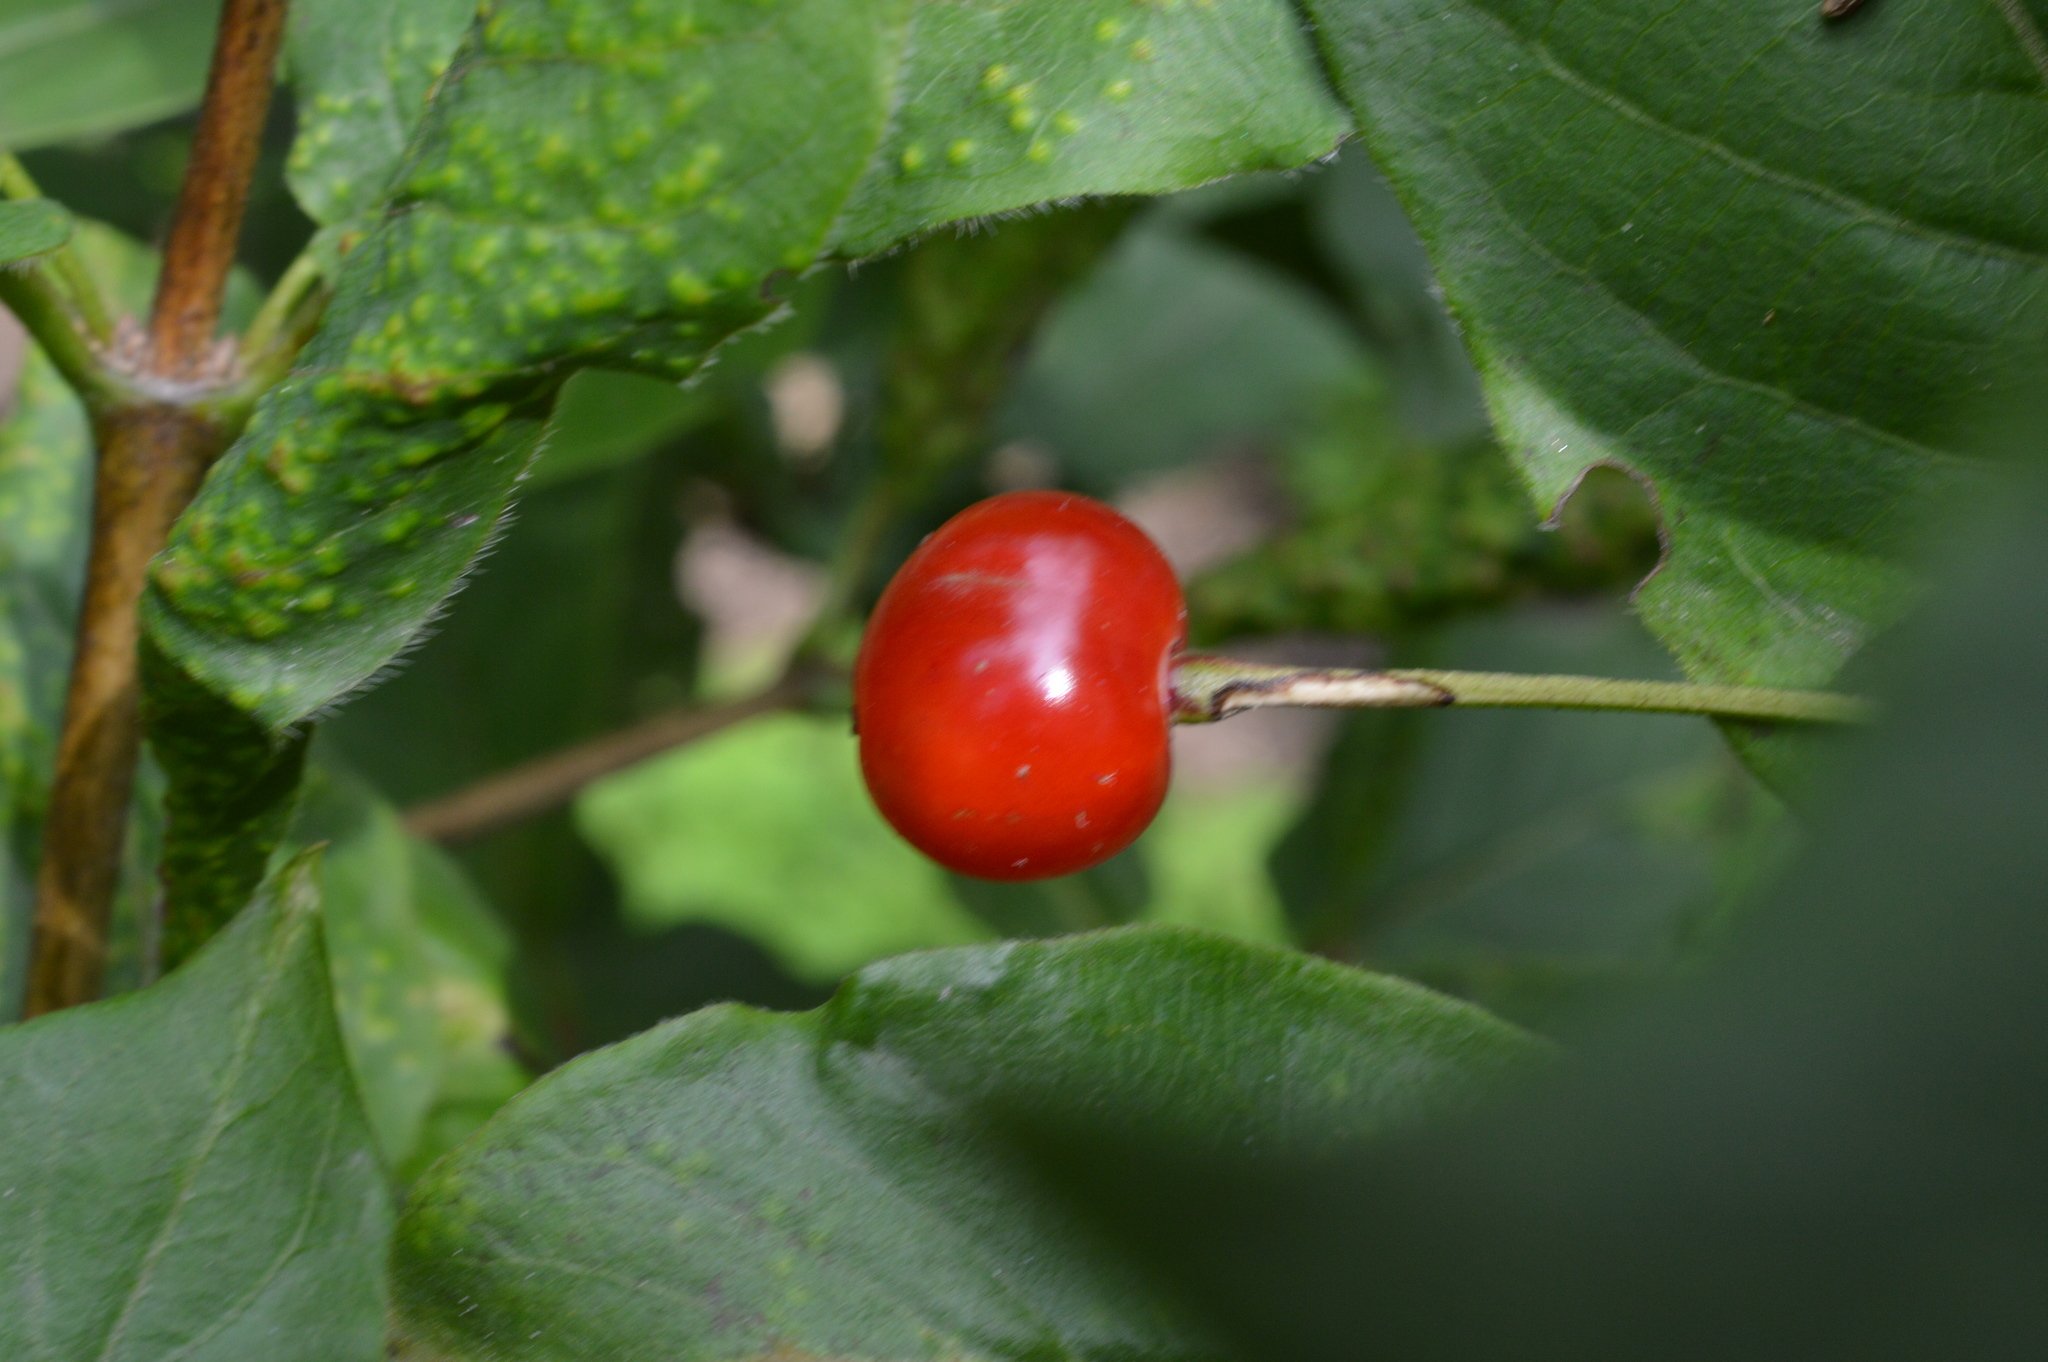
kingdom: Plantae
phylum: Tracheophyta
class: Magnoliopsida
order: Dipsacales
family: Caprifoliaceae
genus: Lonicera
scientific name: Lonicera alpigena
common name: Alpine honeysuckle
